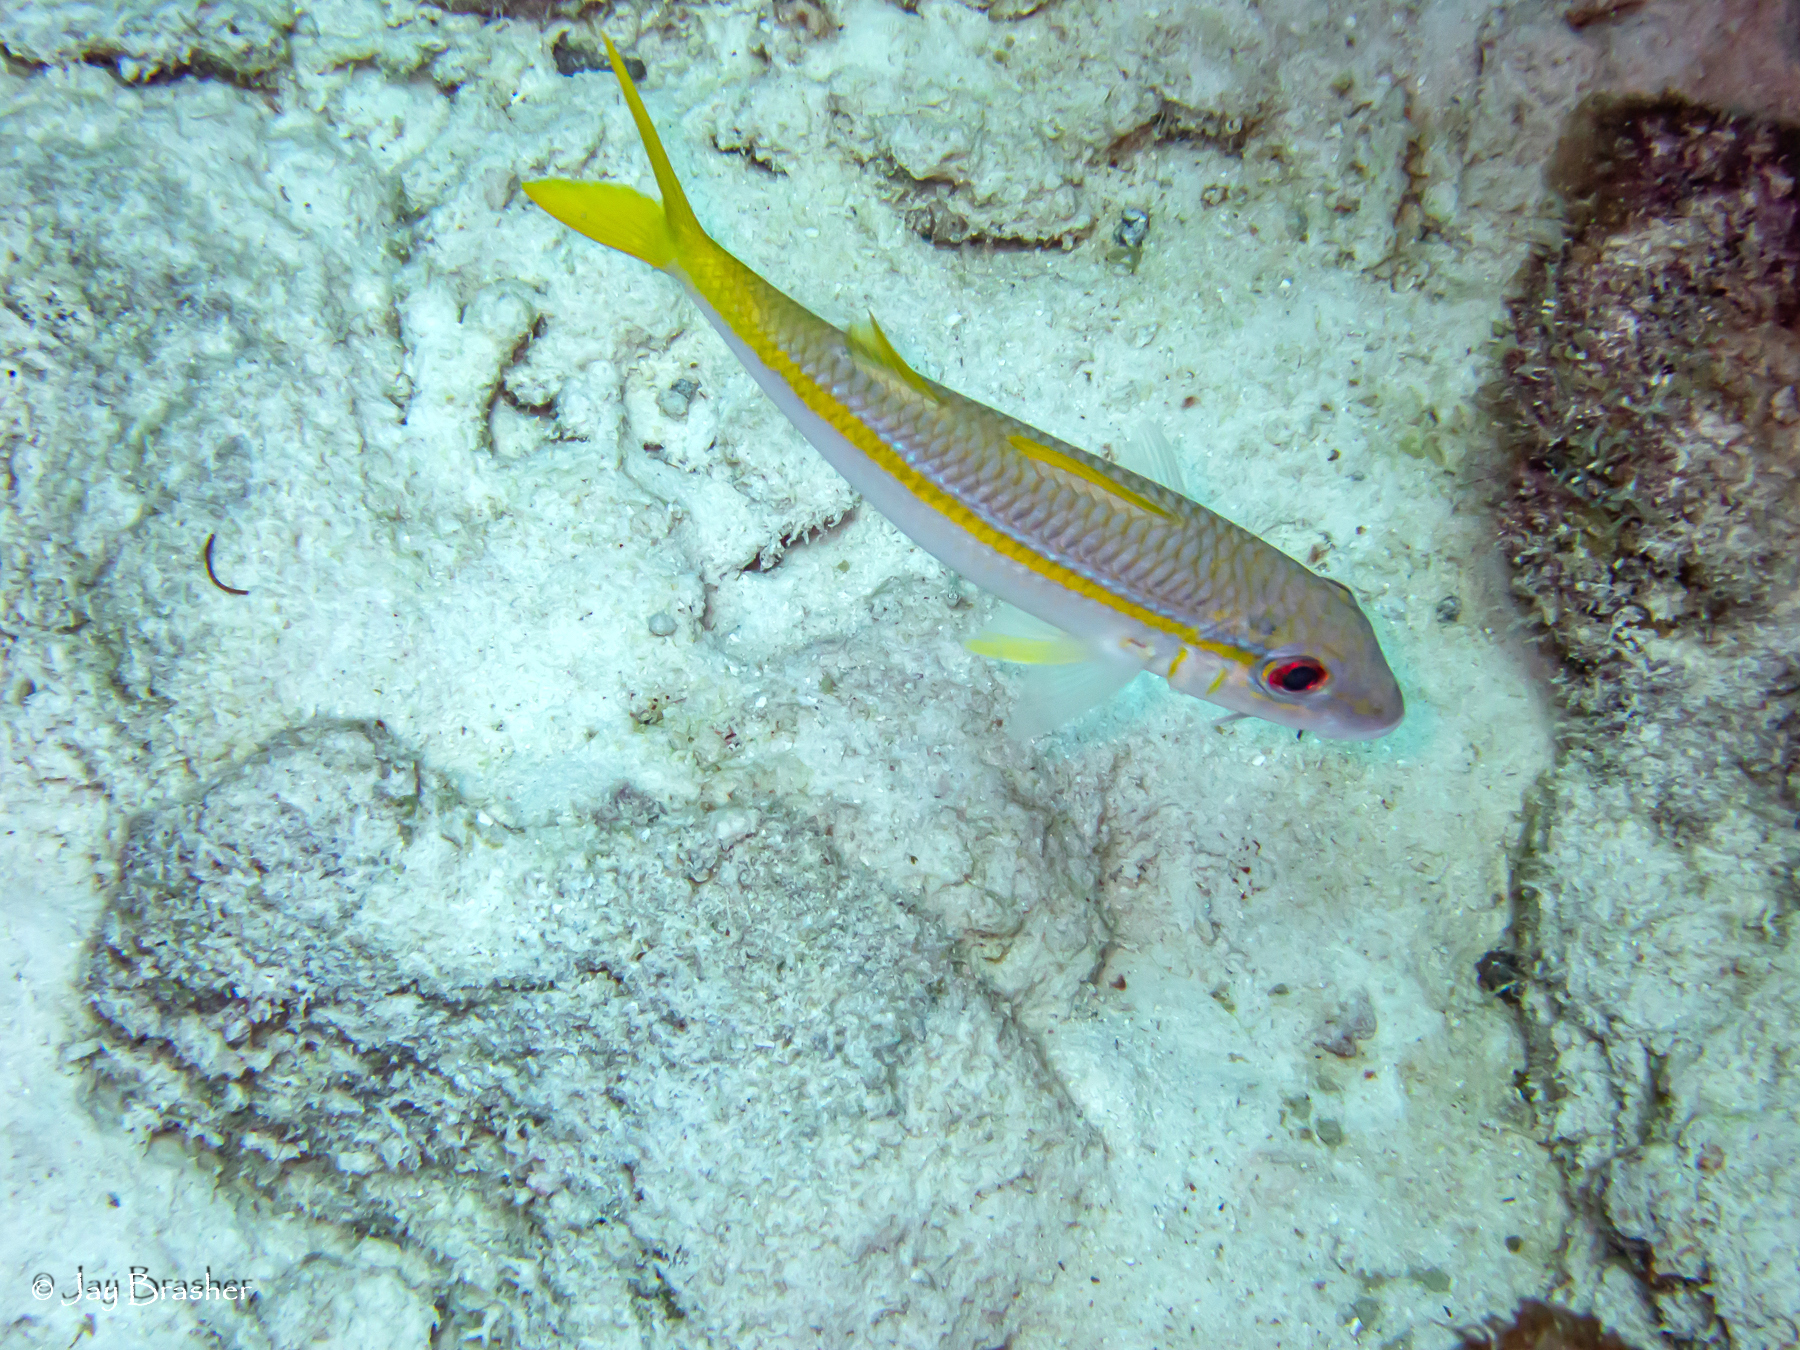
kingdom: Animalia
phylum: Chordata
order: Perciformes
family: Mullidae
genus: Mulloidichthys
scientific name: Mulloidichthys martinicus
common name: Yellow goatfish
